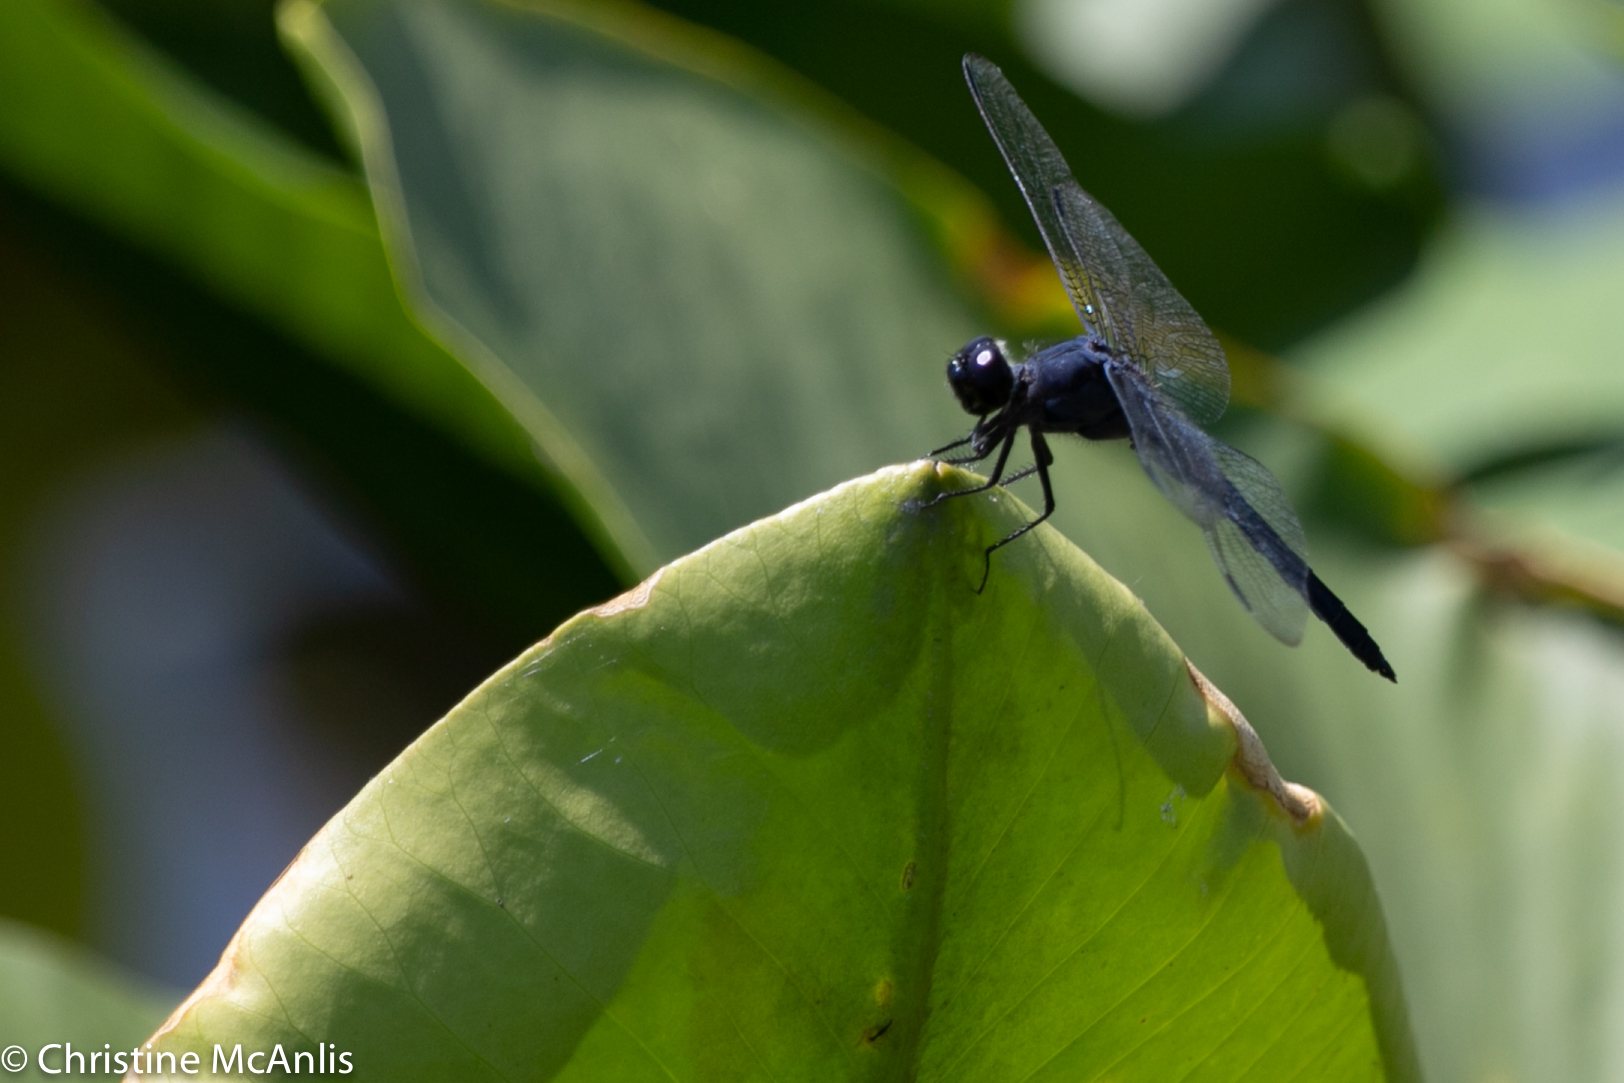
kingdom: Animalia
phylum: Arthropoda
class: Insecta
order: Odonata
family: Libellulidae
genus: Libellula
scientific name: Libellula incesta
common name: Slaty skimmer
